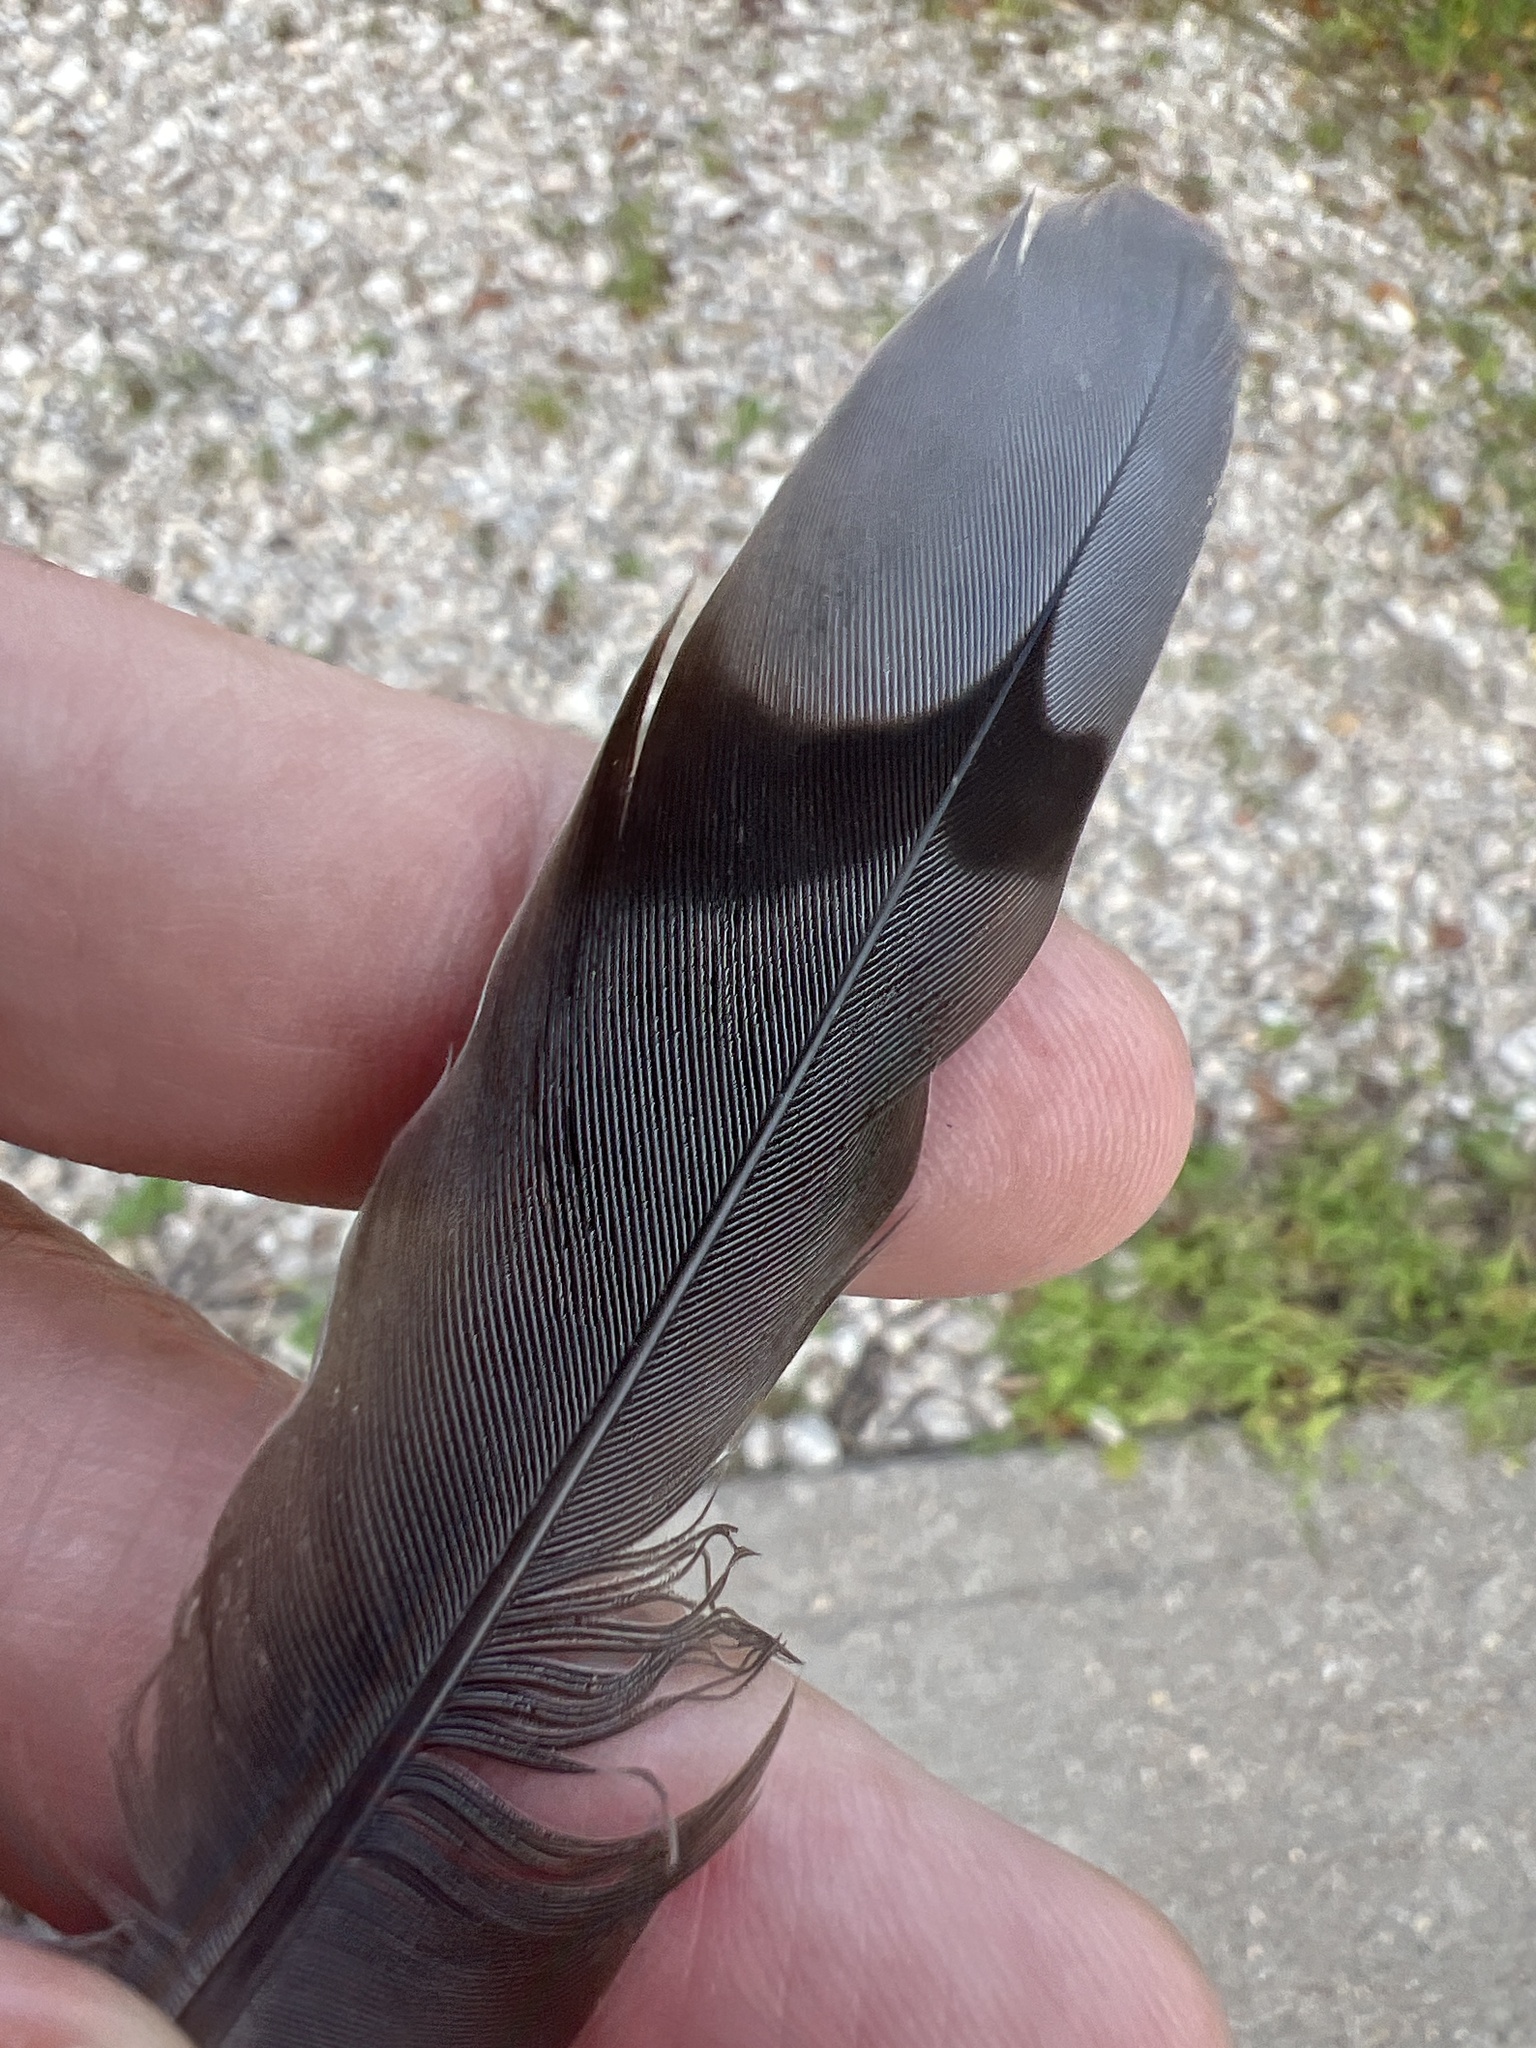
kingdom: Animalia
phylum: Chordata
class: Aves
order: Columbiformes
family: Columbidae
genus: Zenaida
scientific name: Zenaida macroura
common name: Mourning dove
